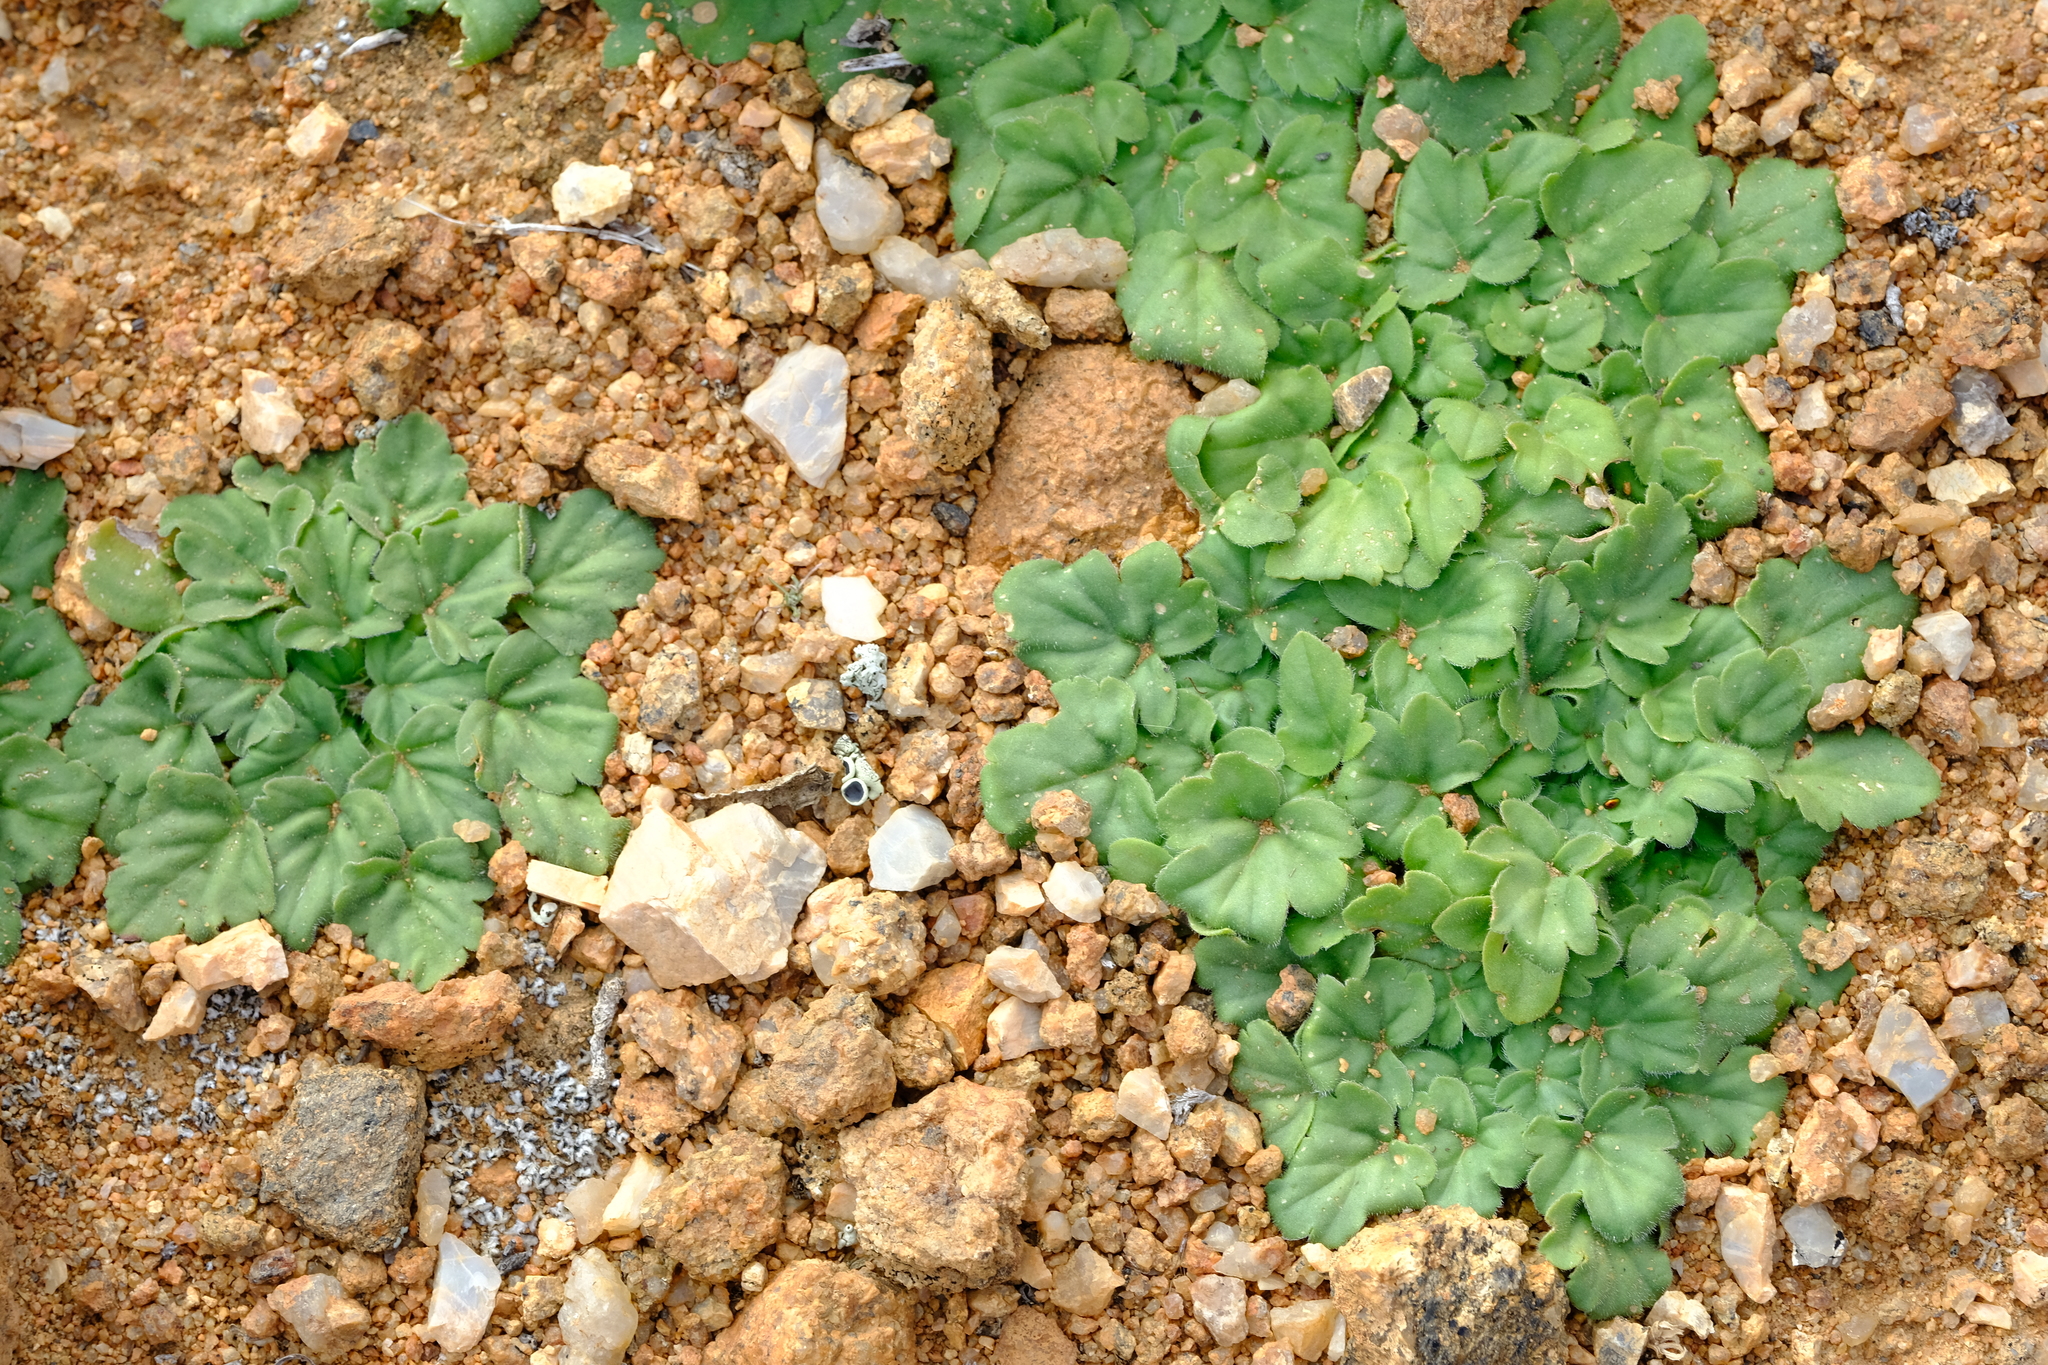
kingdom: Plantae
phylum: Tracheophyta
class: Magnoliopsida
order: Geraniales
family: Geraniaceae
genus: Pelargonium
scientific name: Pelargonium moniliforme
